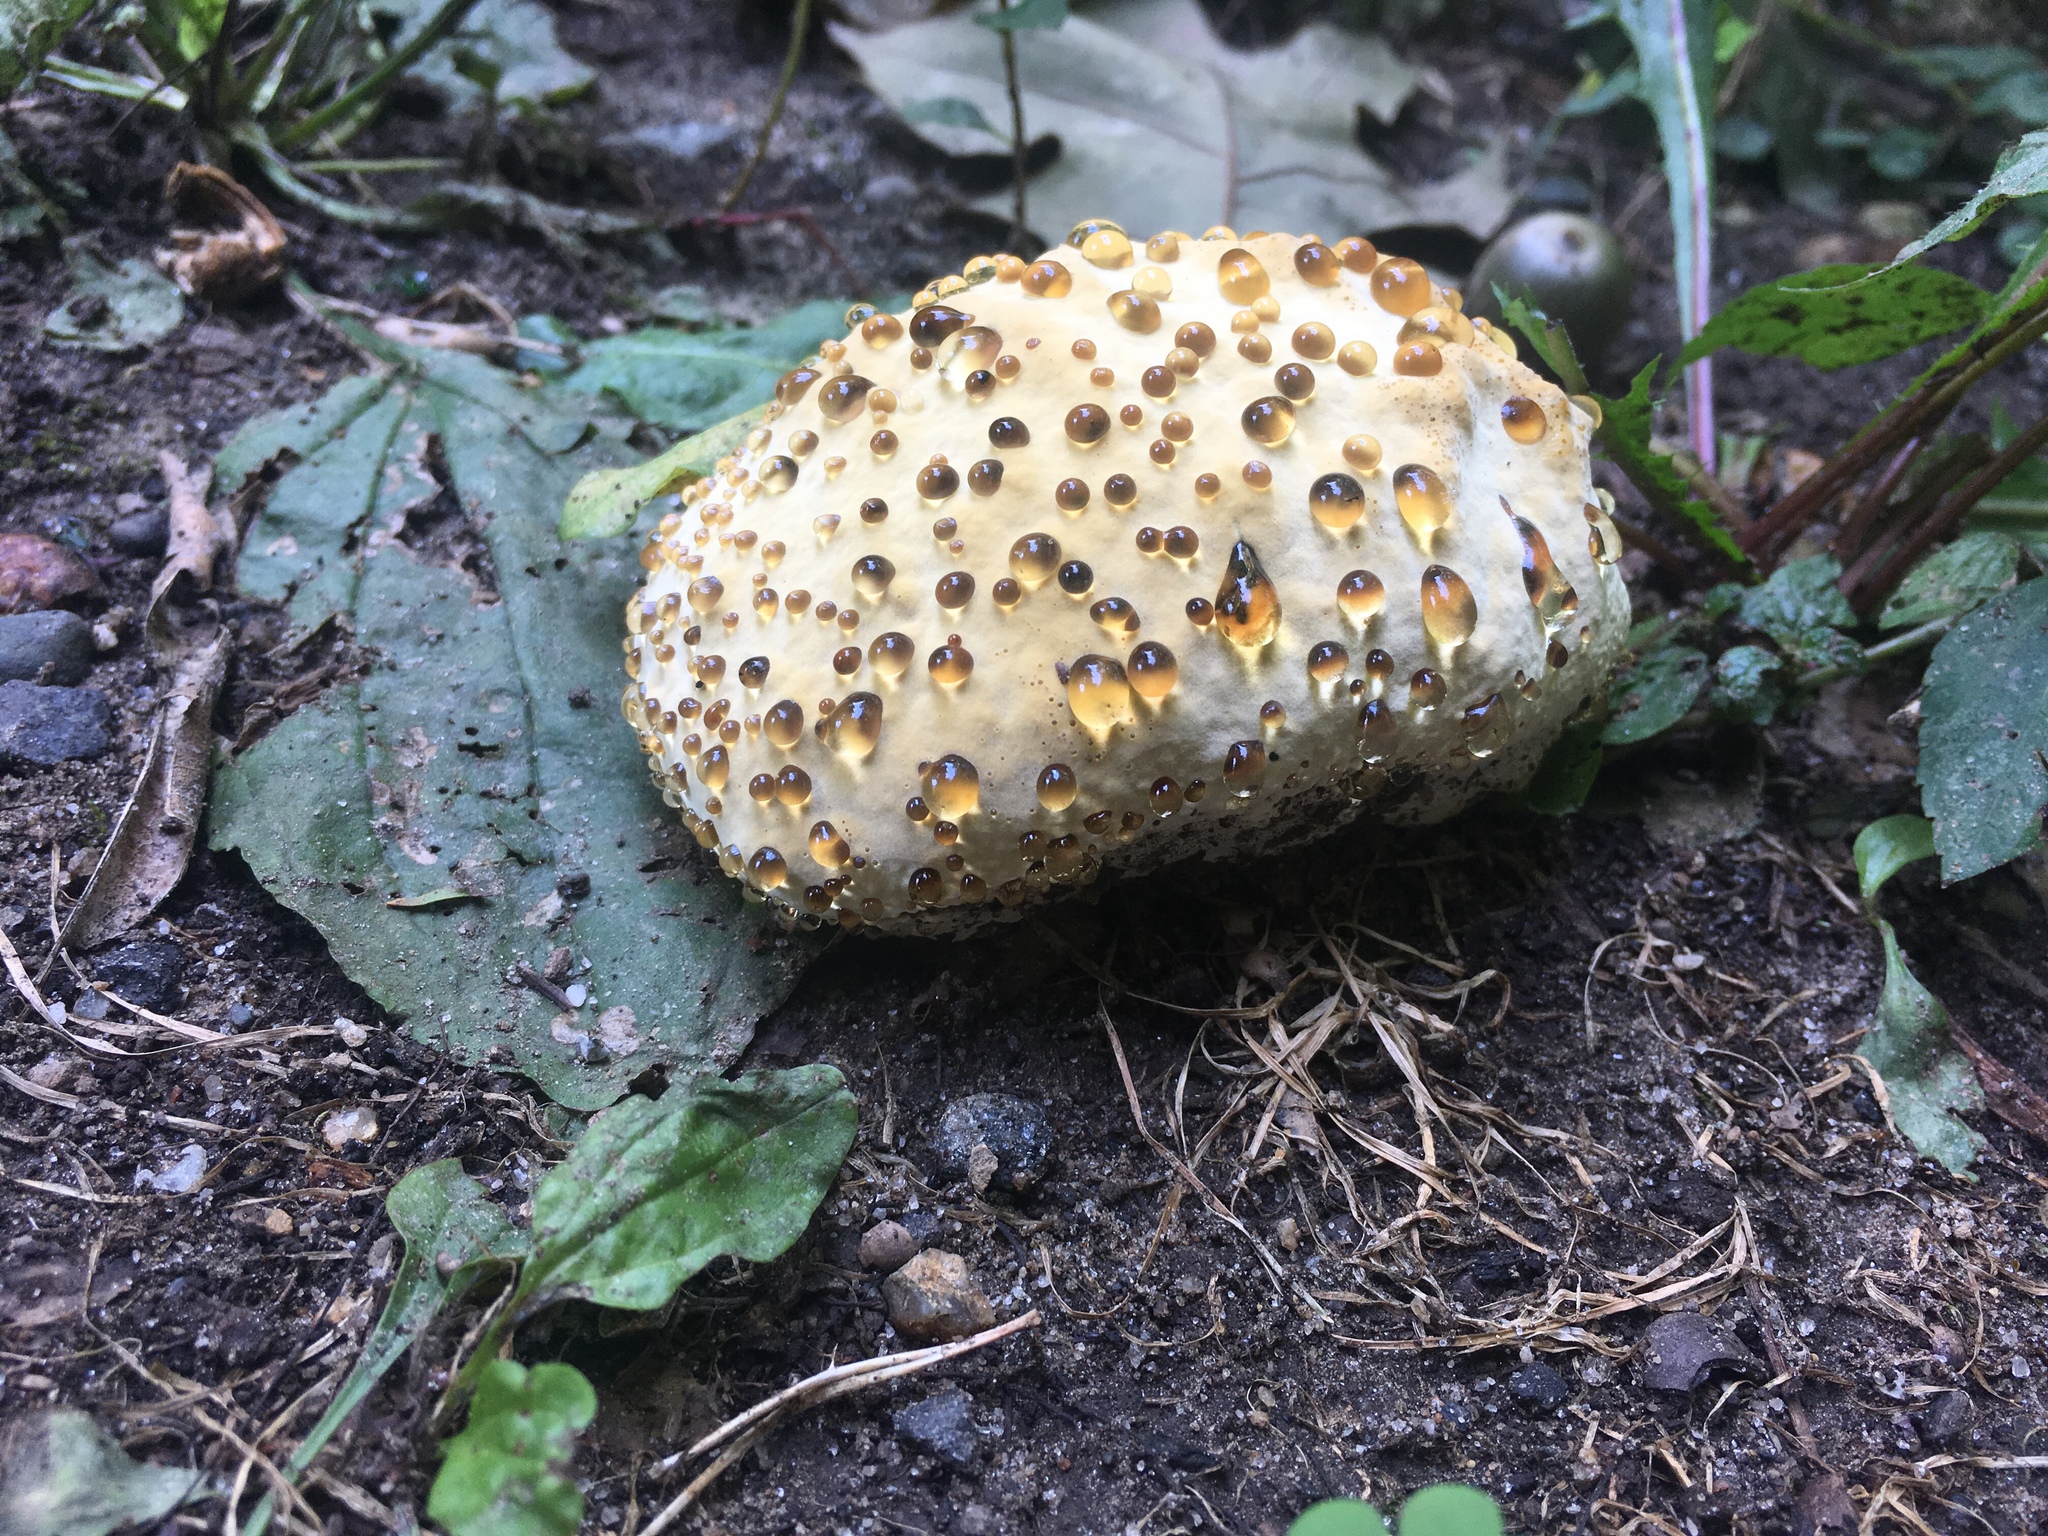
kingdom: Fungi
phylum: Basidiomycota
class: Agaricomycetes
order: Hymenochaetales
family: Hymenochaetaceae
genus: Pseudoinonotus
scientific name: Pseudoinonotus dryadeus
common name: Oak bracket
